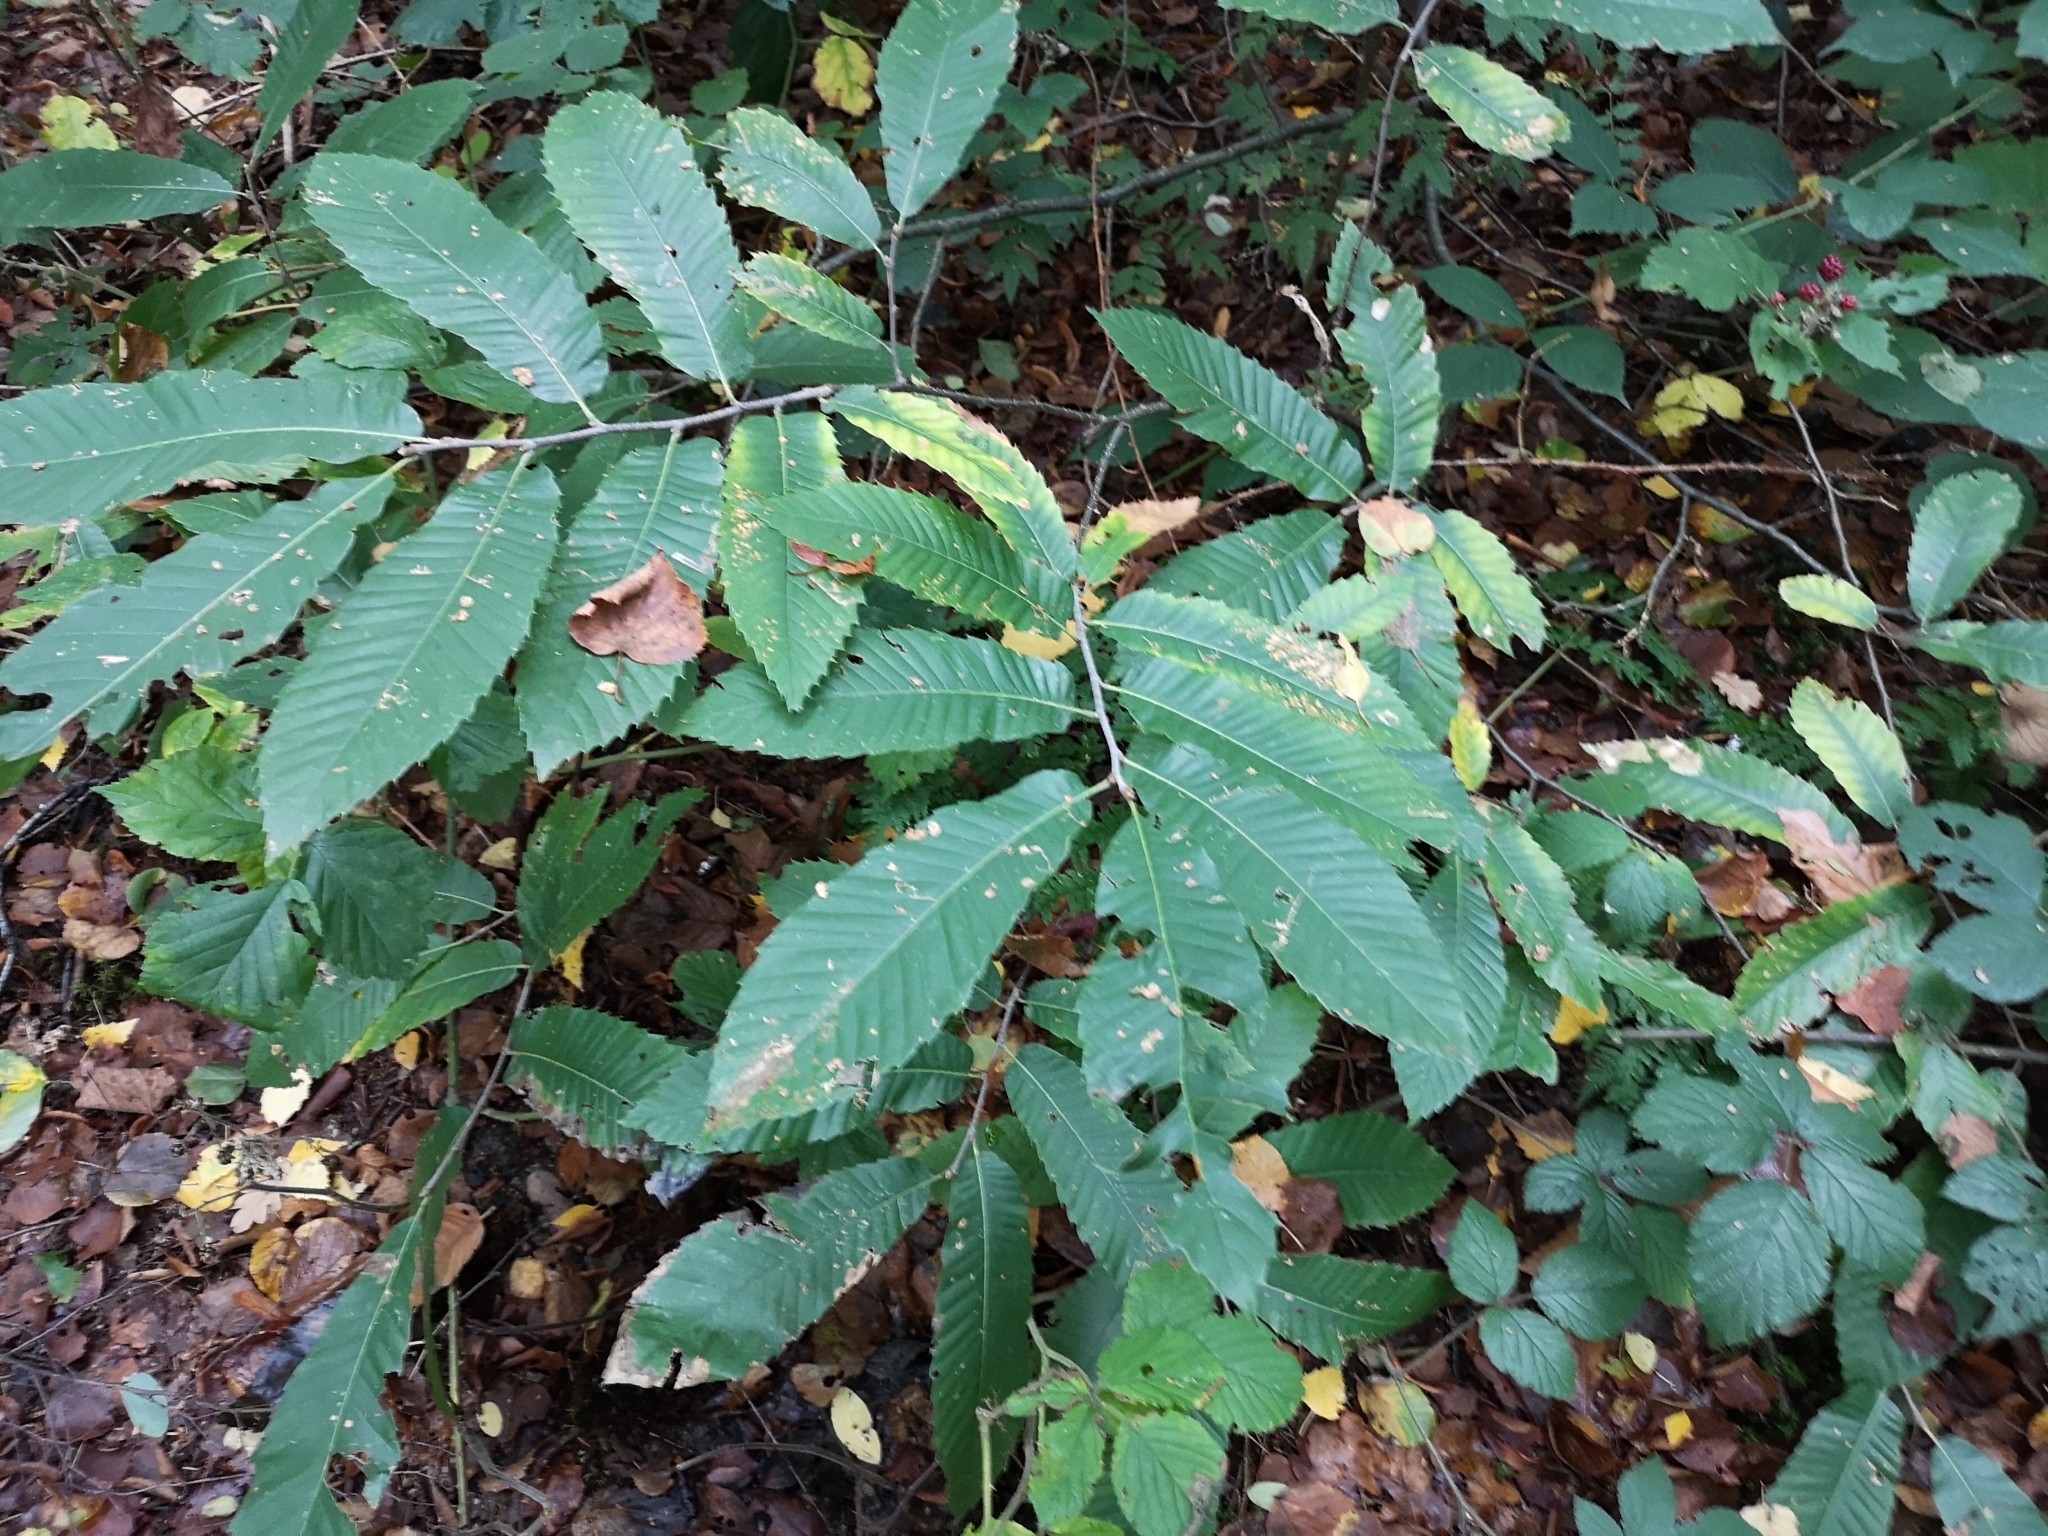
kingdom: Plantae
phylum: Tracheophyta
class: Magnoliopsida
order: Fagales
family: Fagaceae
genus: Castanea
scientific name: Castanea sativa
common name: Sweet chestnut
